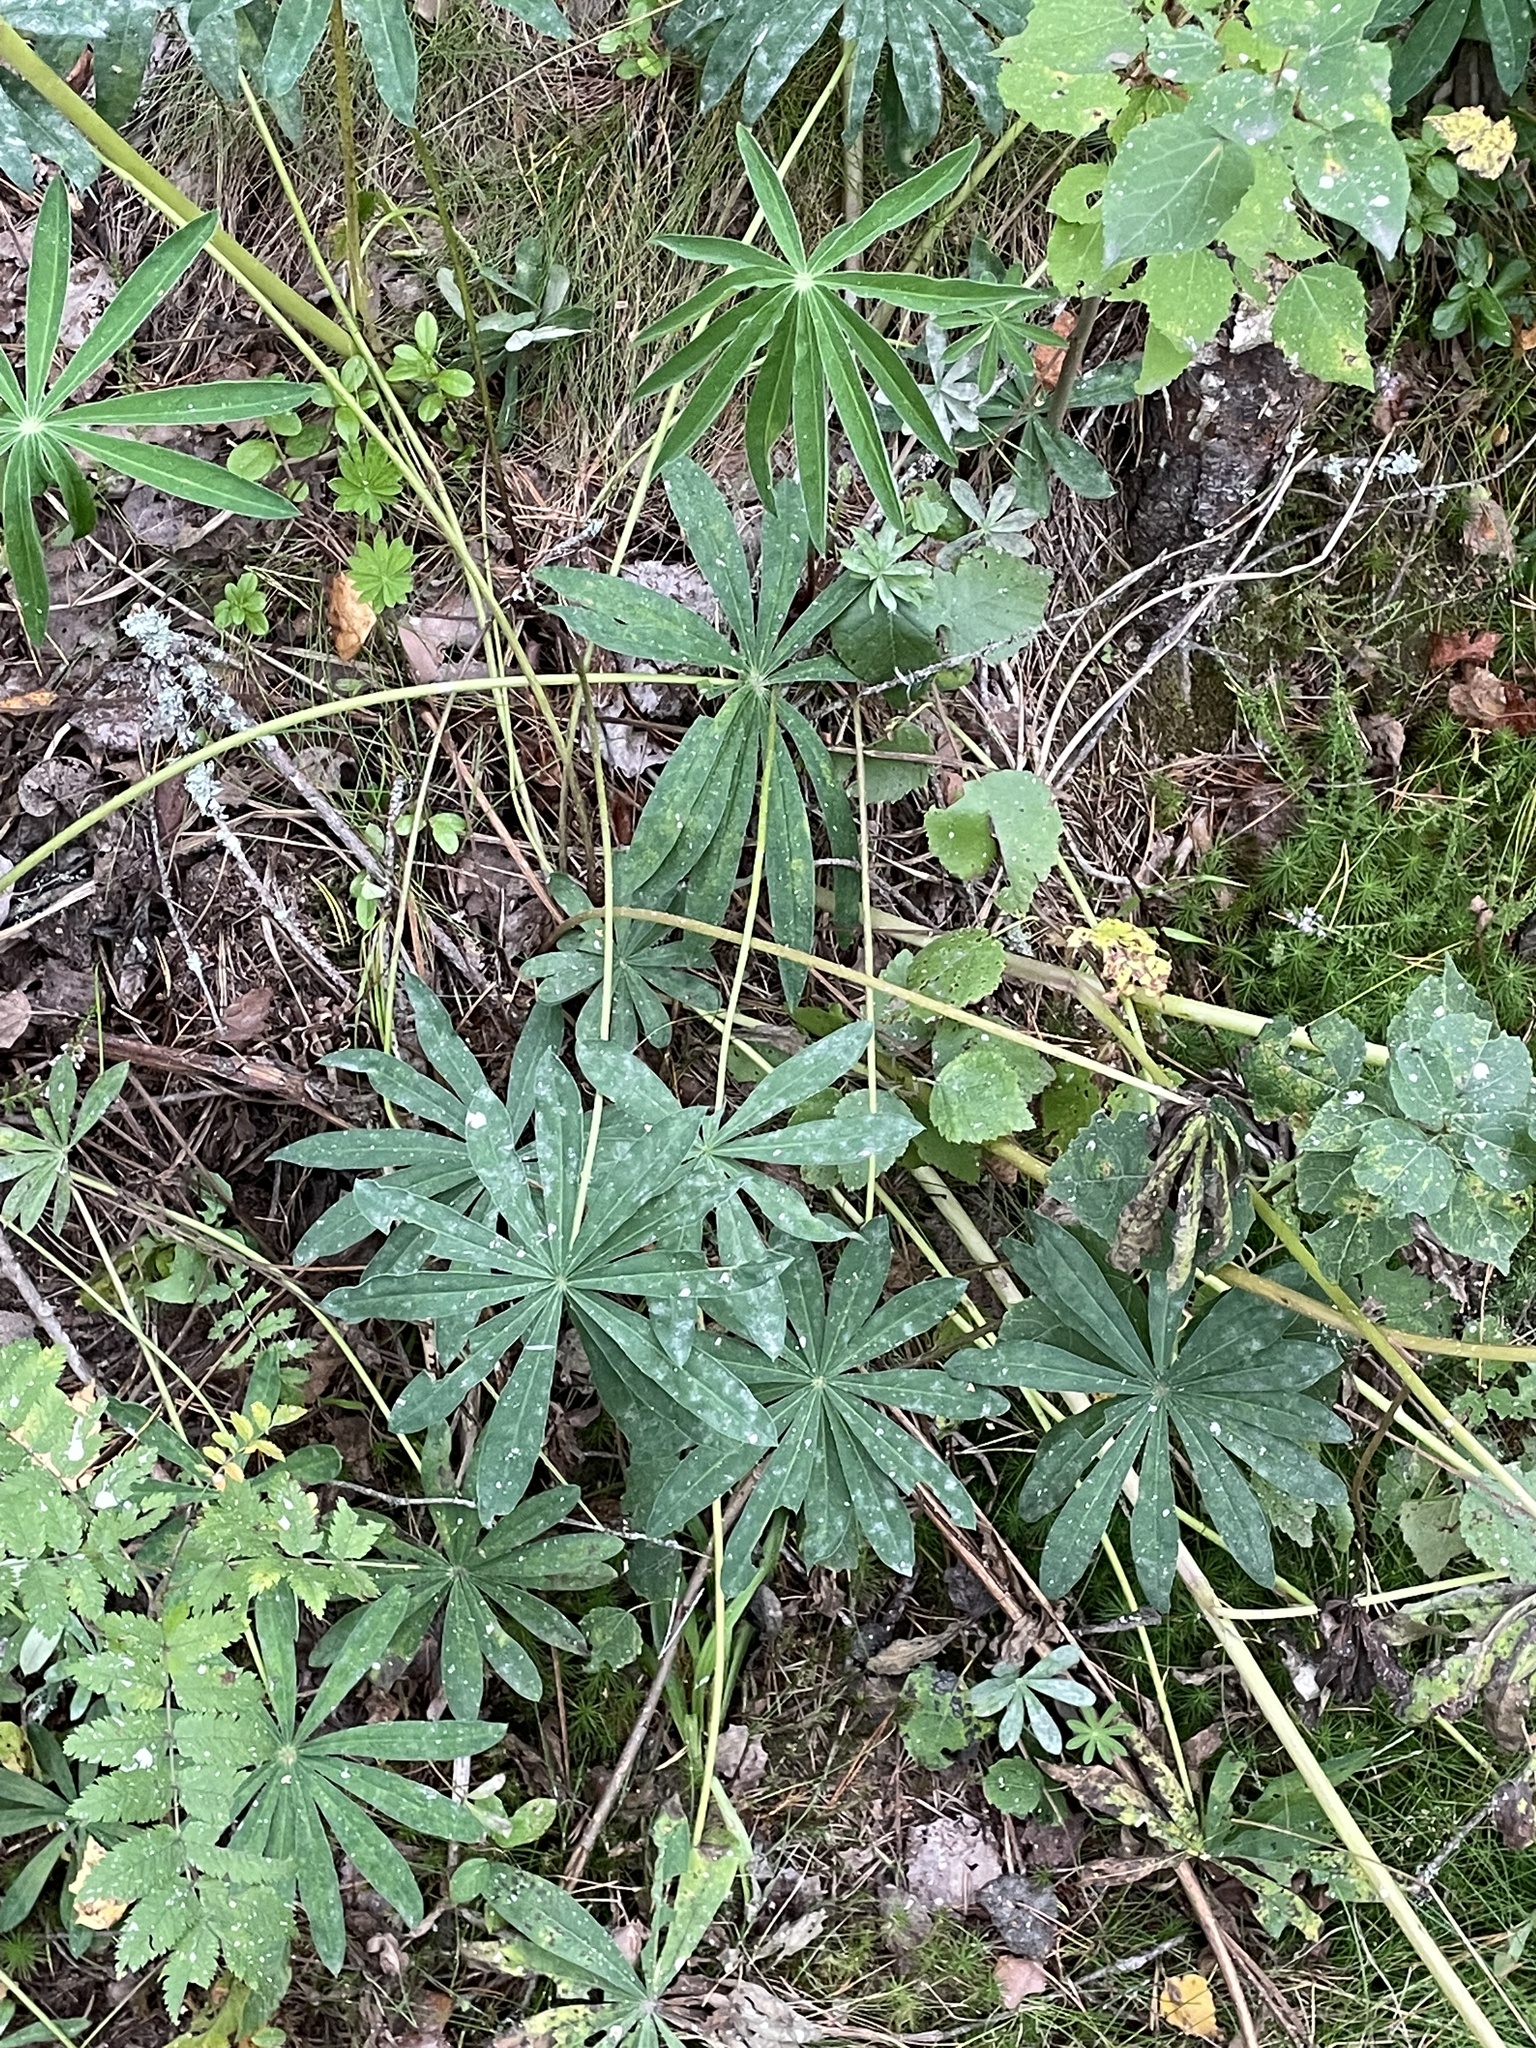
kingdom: Plantae
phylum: Tracheophyta
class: Magnoliopsida
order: Fabales
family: Fabaceae
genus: Lupinus
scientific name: Lupinus polyphyllus
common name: Garden lupin
